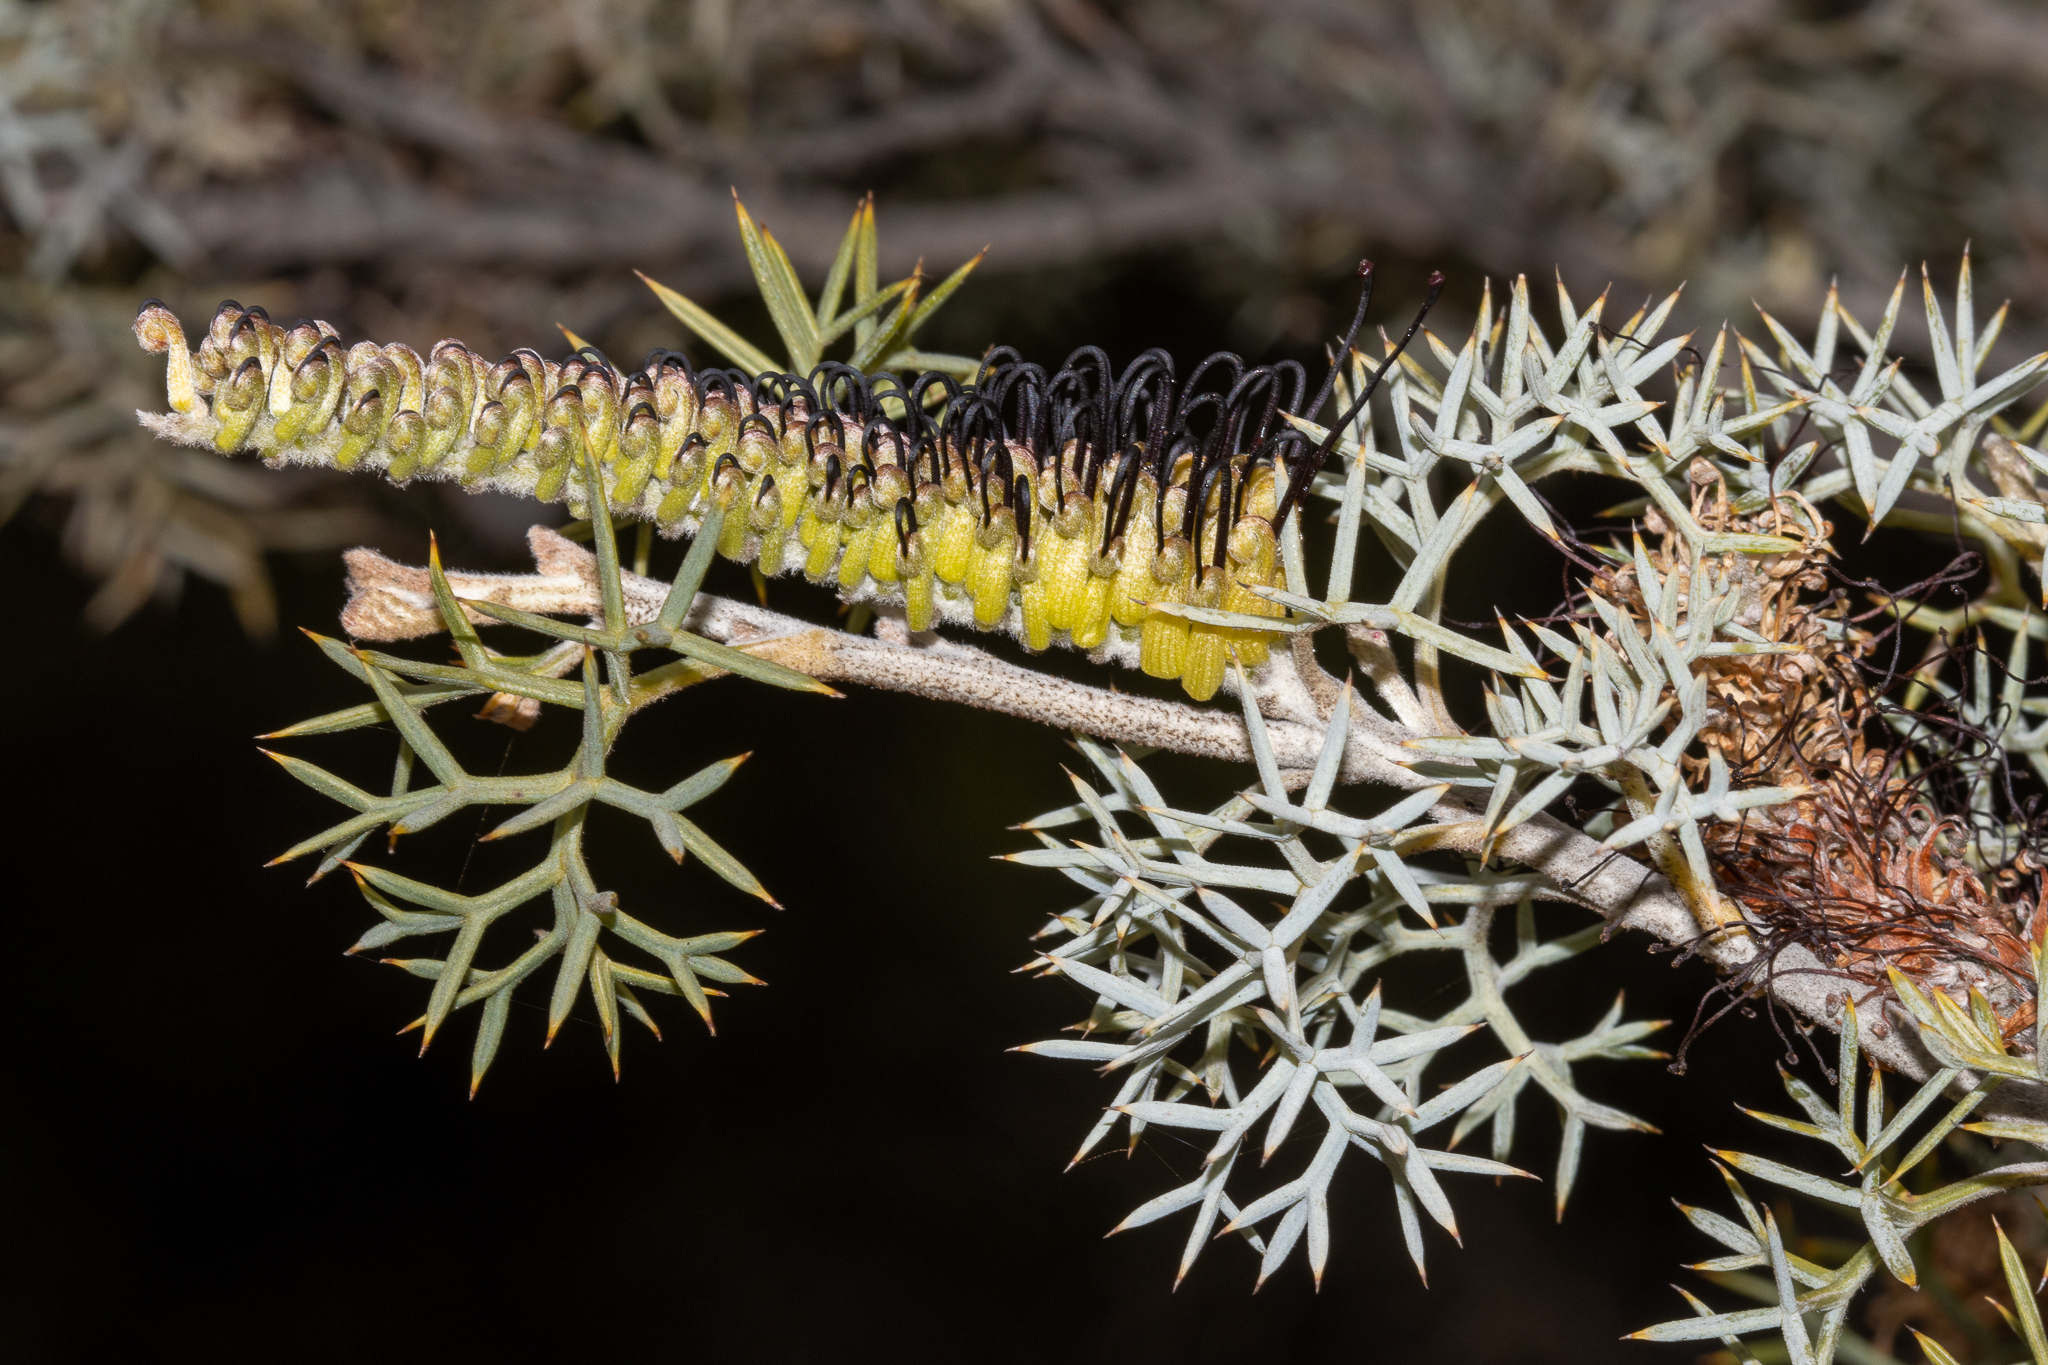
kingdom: Plantae
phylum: Tracheophyta
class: Magnoliopsida
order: Proteales
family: Proteaceae
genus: Grevillea
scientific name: Grevillea armigera
